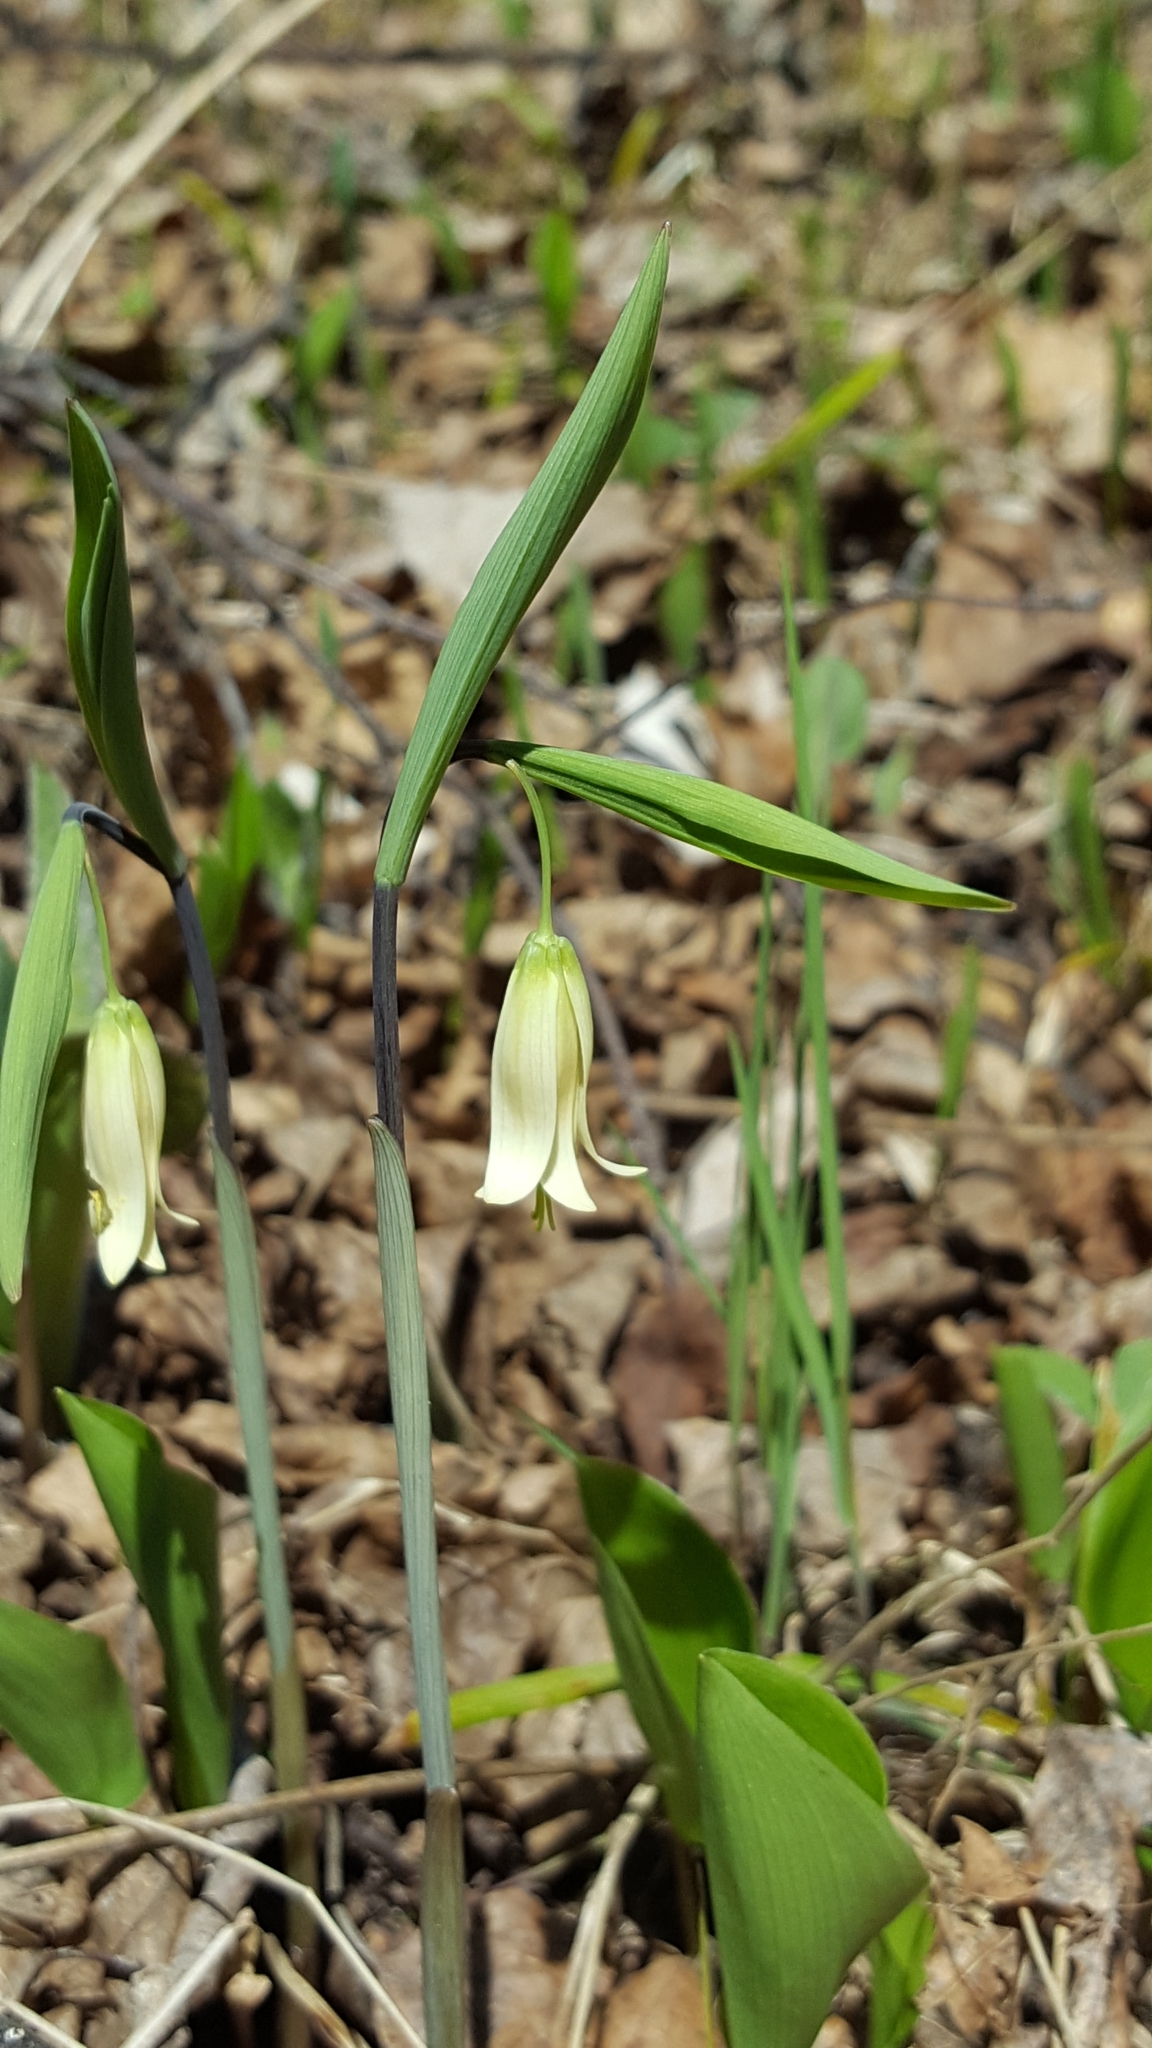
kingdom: Plantae
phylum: Tracheophyta
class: Liliopsida
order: Liliales
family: Colchicaceae
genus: Uvularia
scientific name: Uvularia sessilifolia
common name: Straw-lily
